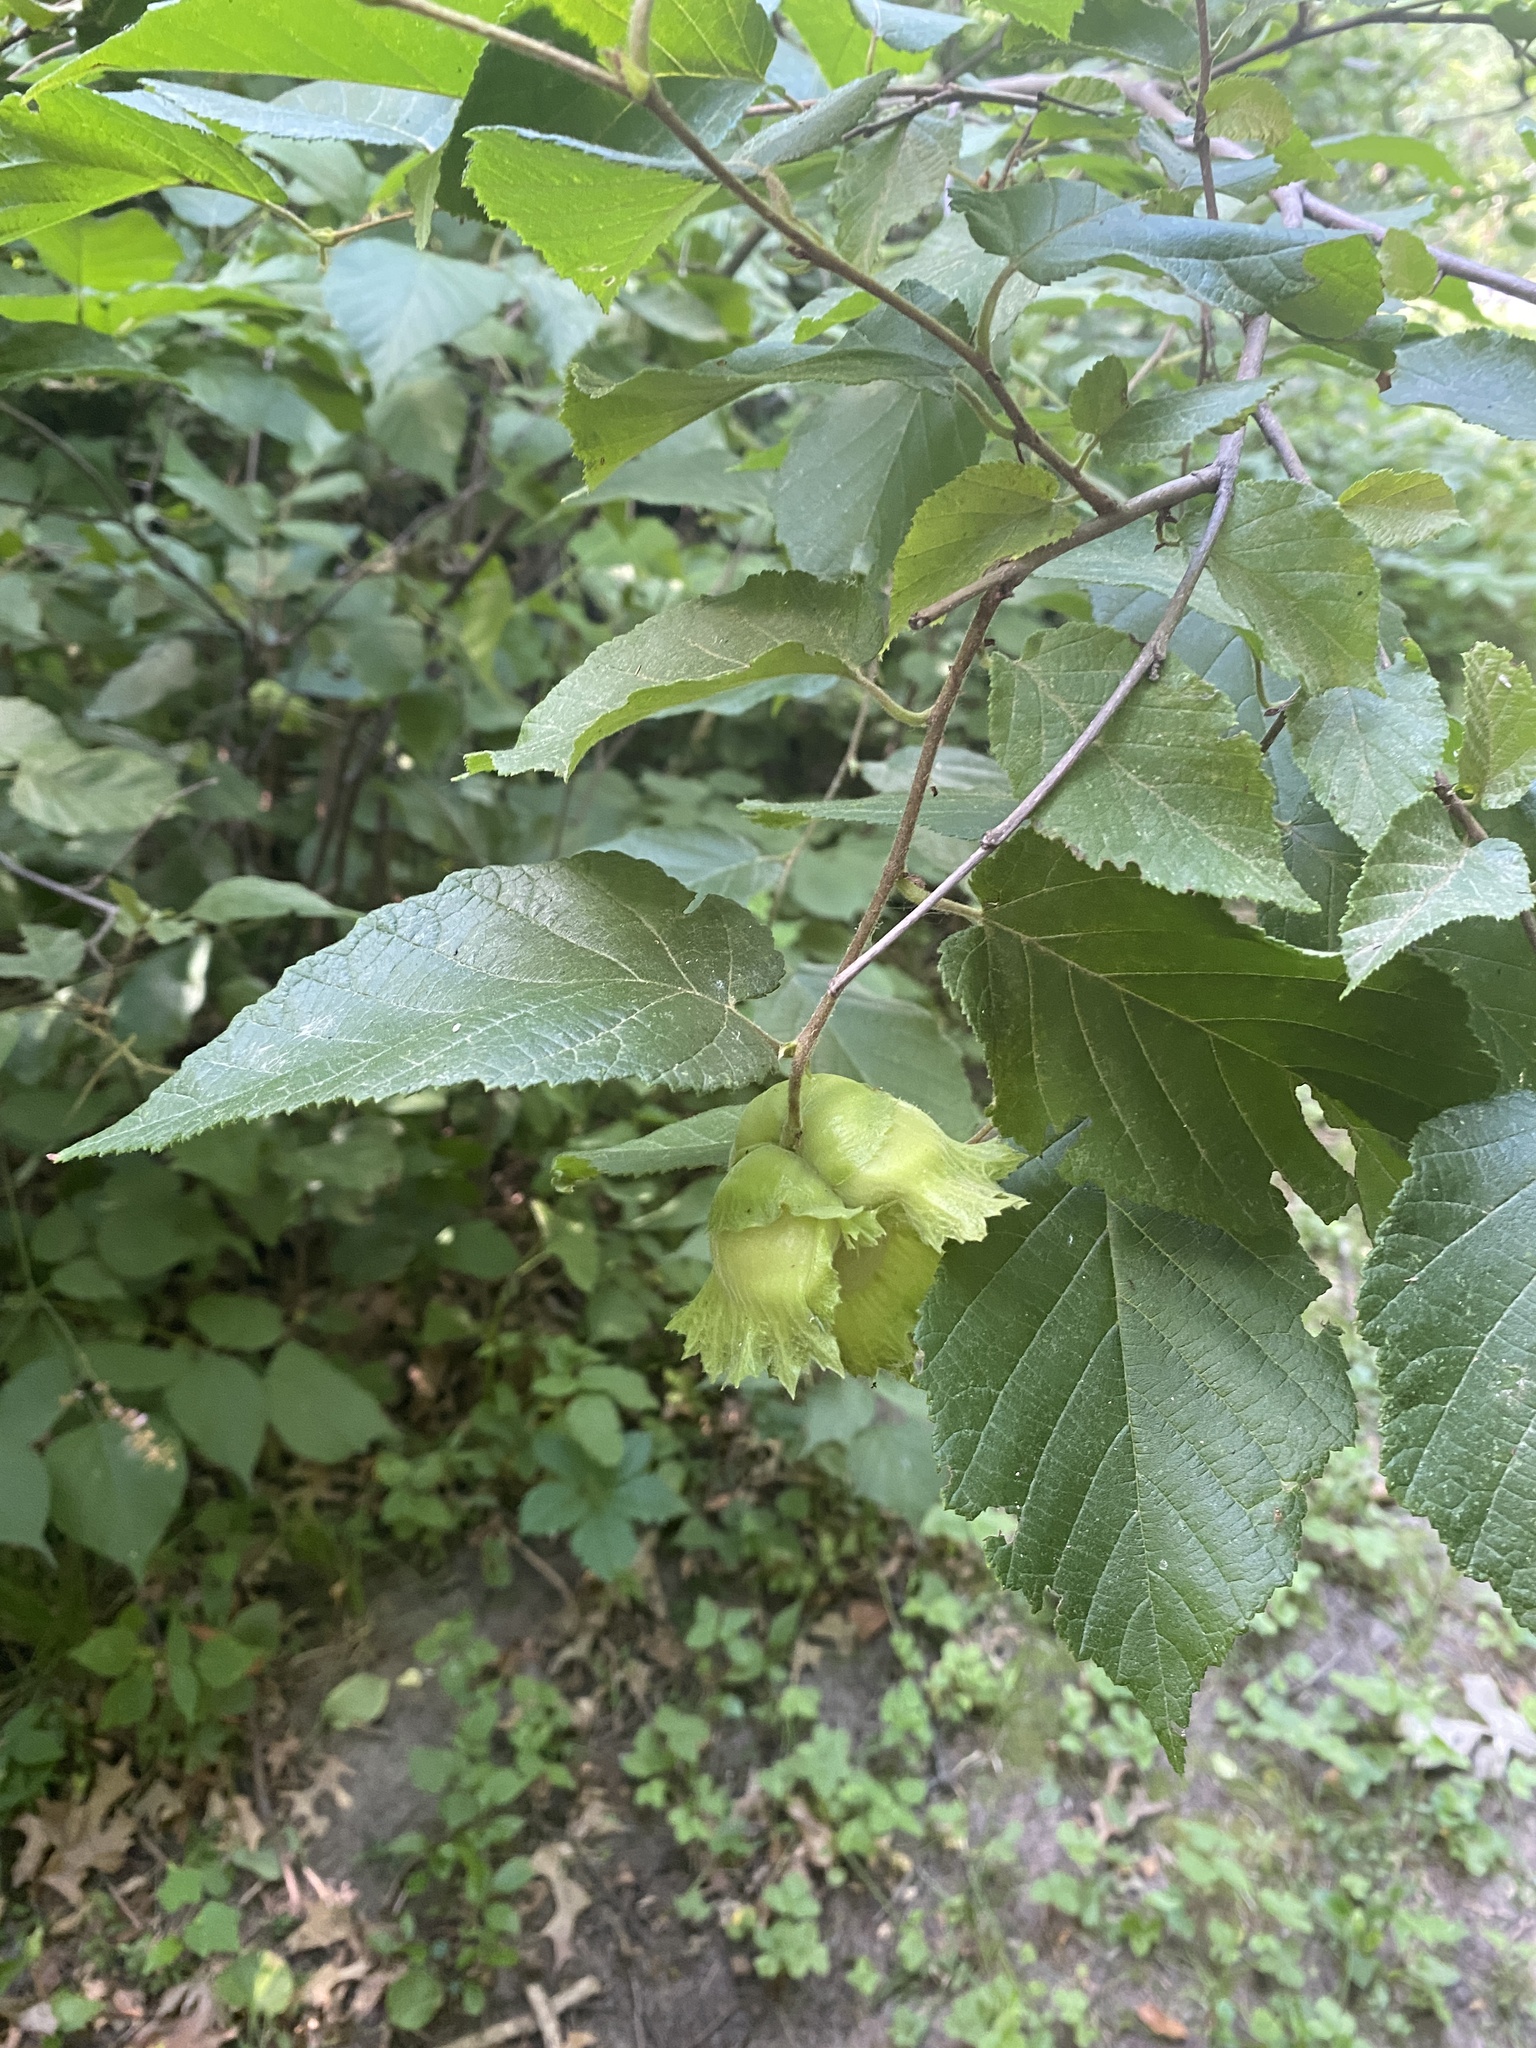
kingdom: Plantae
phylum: Tracheophyta
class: Magnoliopsida
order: Fagales
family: Betulaceae
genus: Corylus
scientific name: Corylus americana
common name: American hazel
